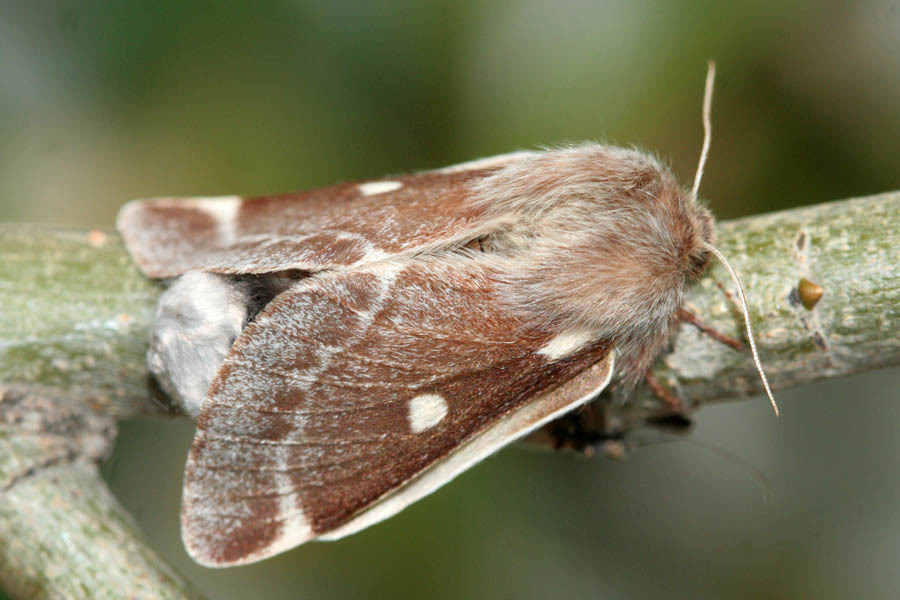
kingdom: Animalia
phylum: Arthropoda
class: Insecta
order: Lepidoptera
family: Lasiocampidae
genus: Eriogaster
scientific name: Eriogaster lanestris
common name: Small eggar
